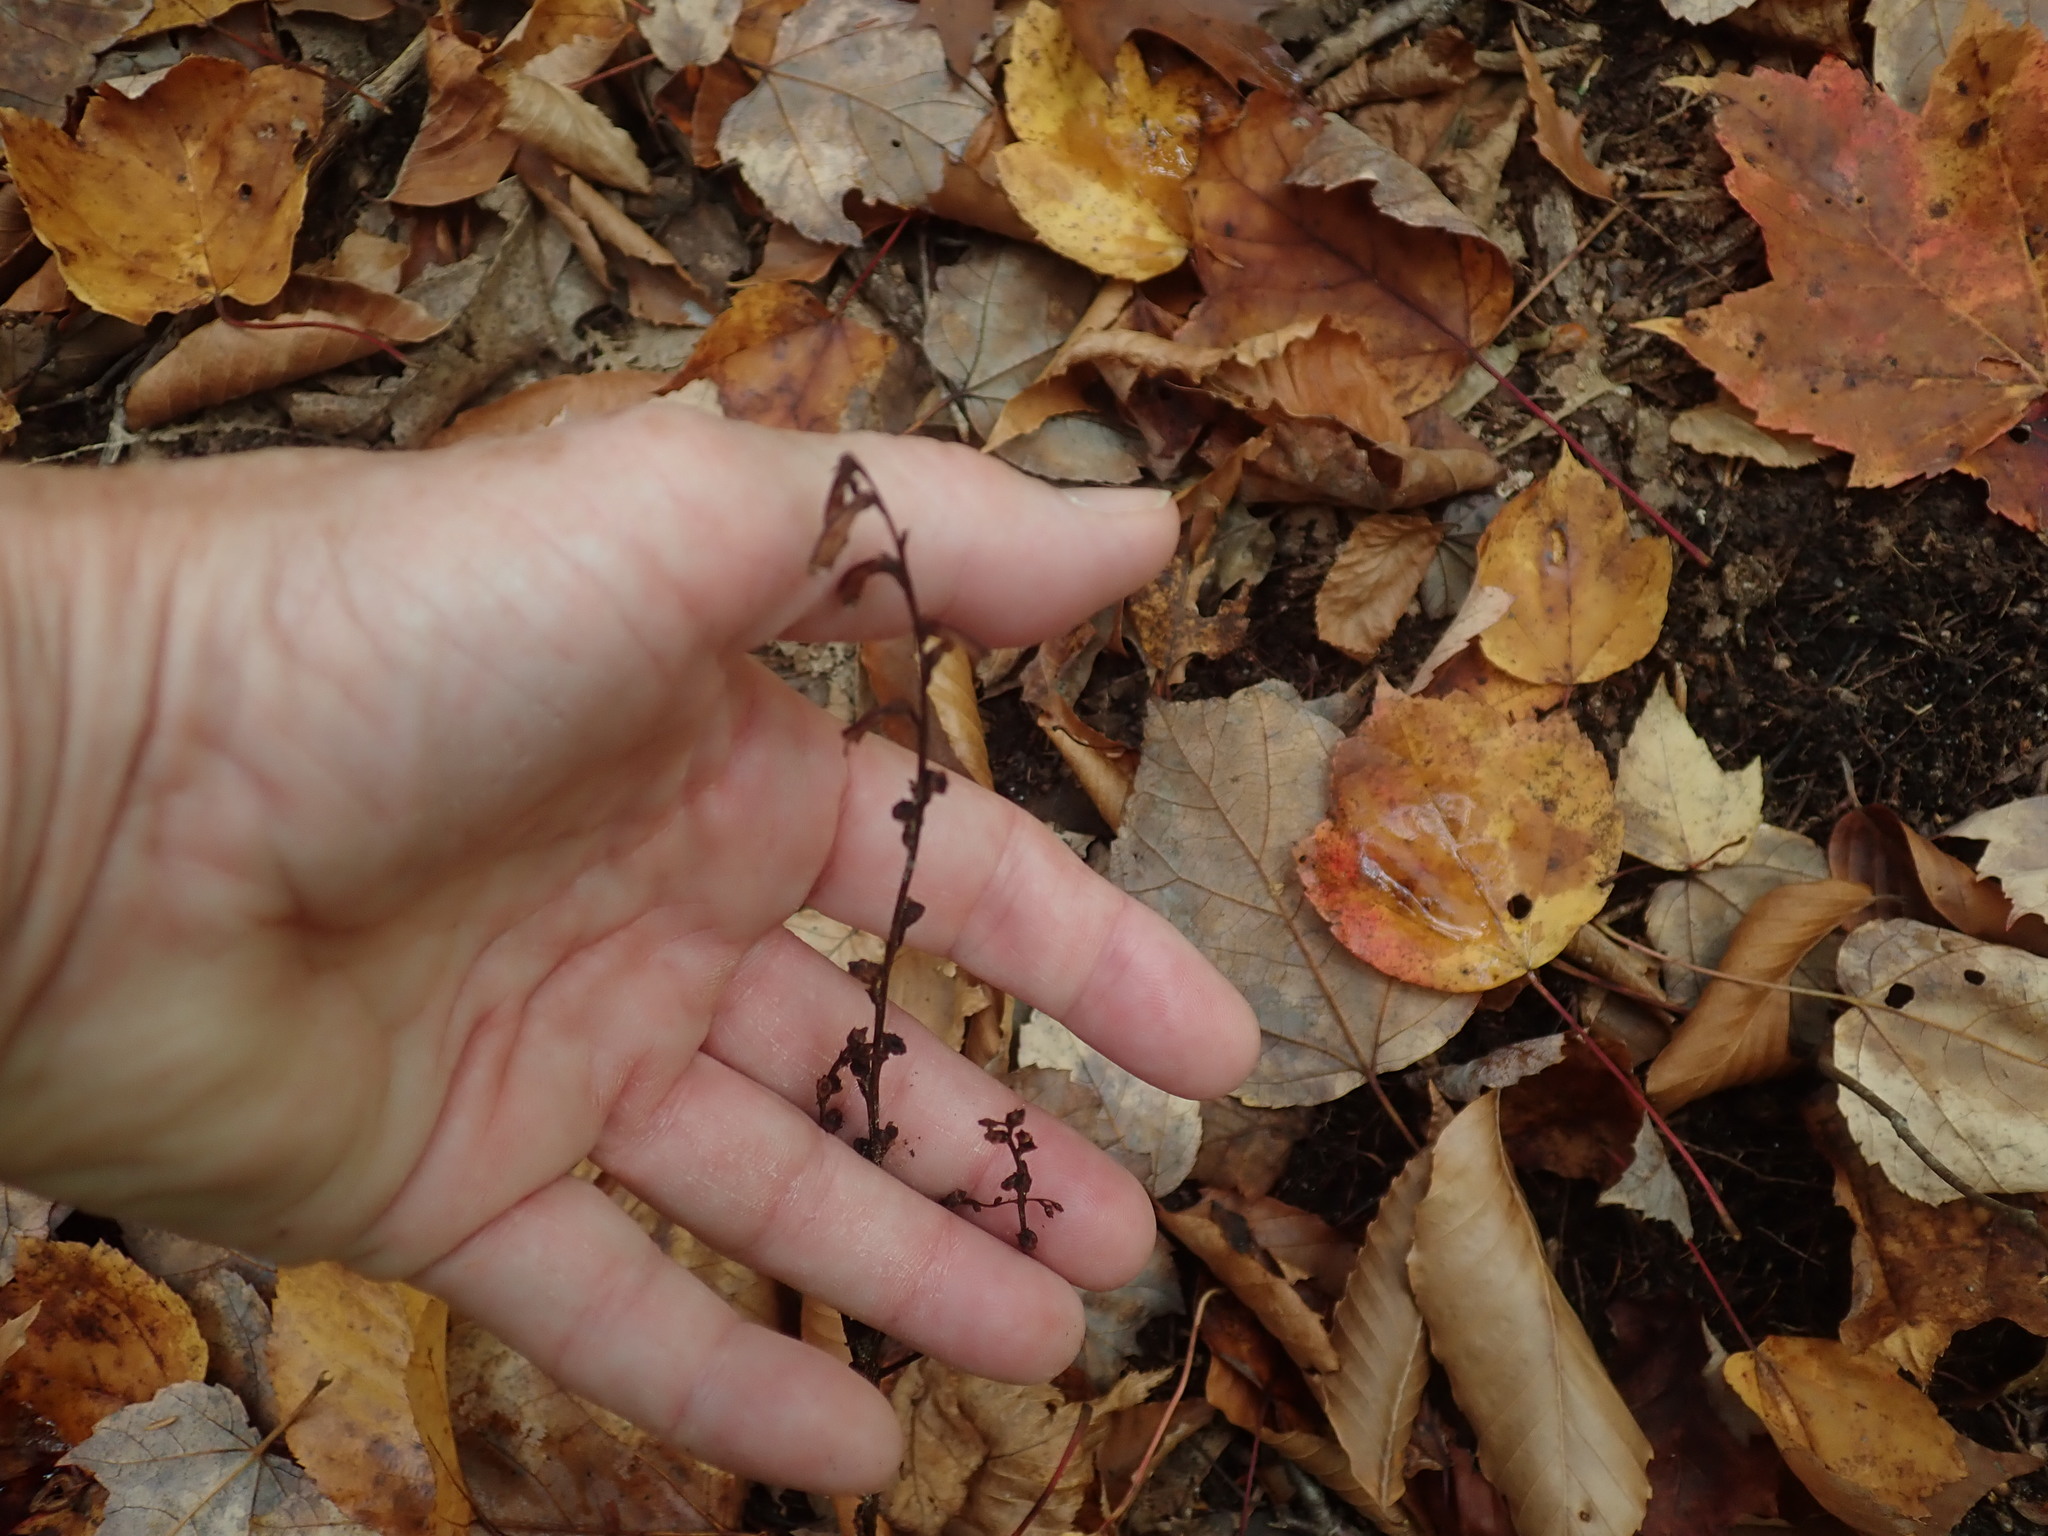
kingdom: Plantae
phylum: Tracheophyta
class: Magnoliopsida
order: Lamiales
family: Orobanchaceae
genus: Epifagus
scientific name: Epifagus virginiana
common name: Beechdrops
